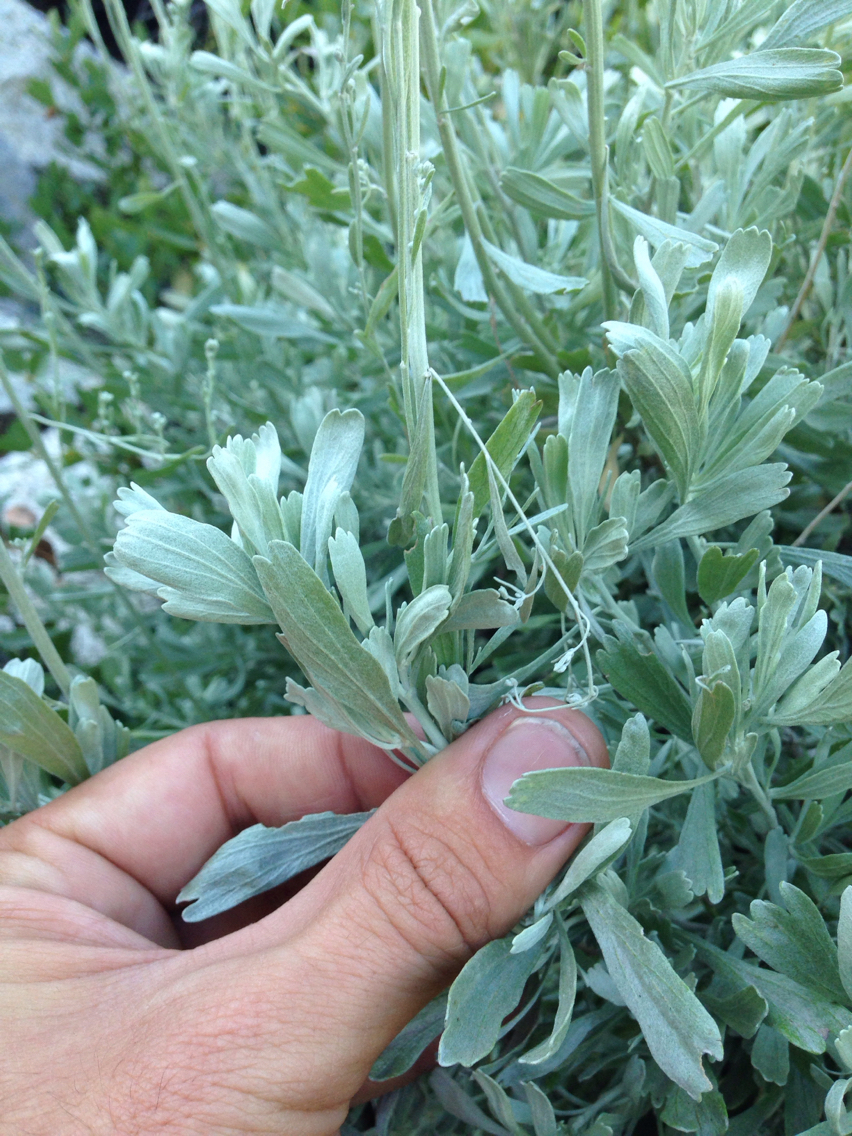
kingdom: Plantae
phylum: Tracheophyta
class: Magnoliopsida
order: Asterales
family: Asteraceae
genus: Artemisia
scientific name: Artemisia tridentata
